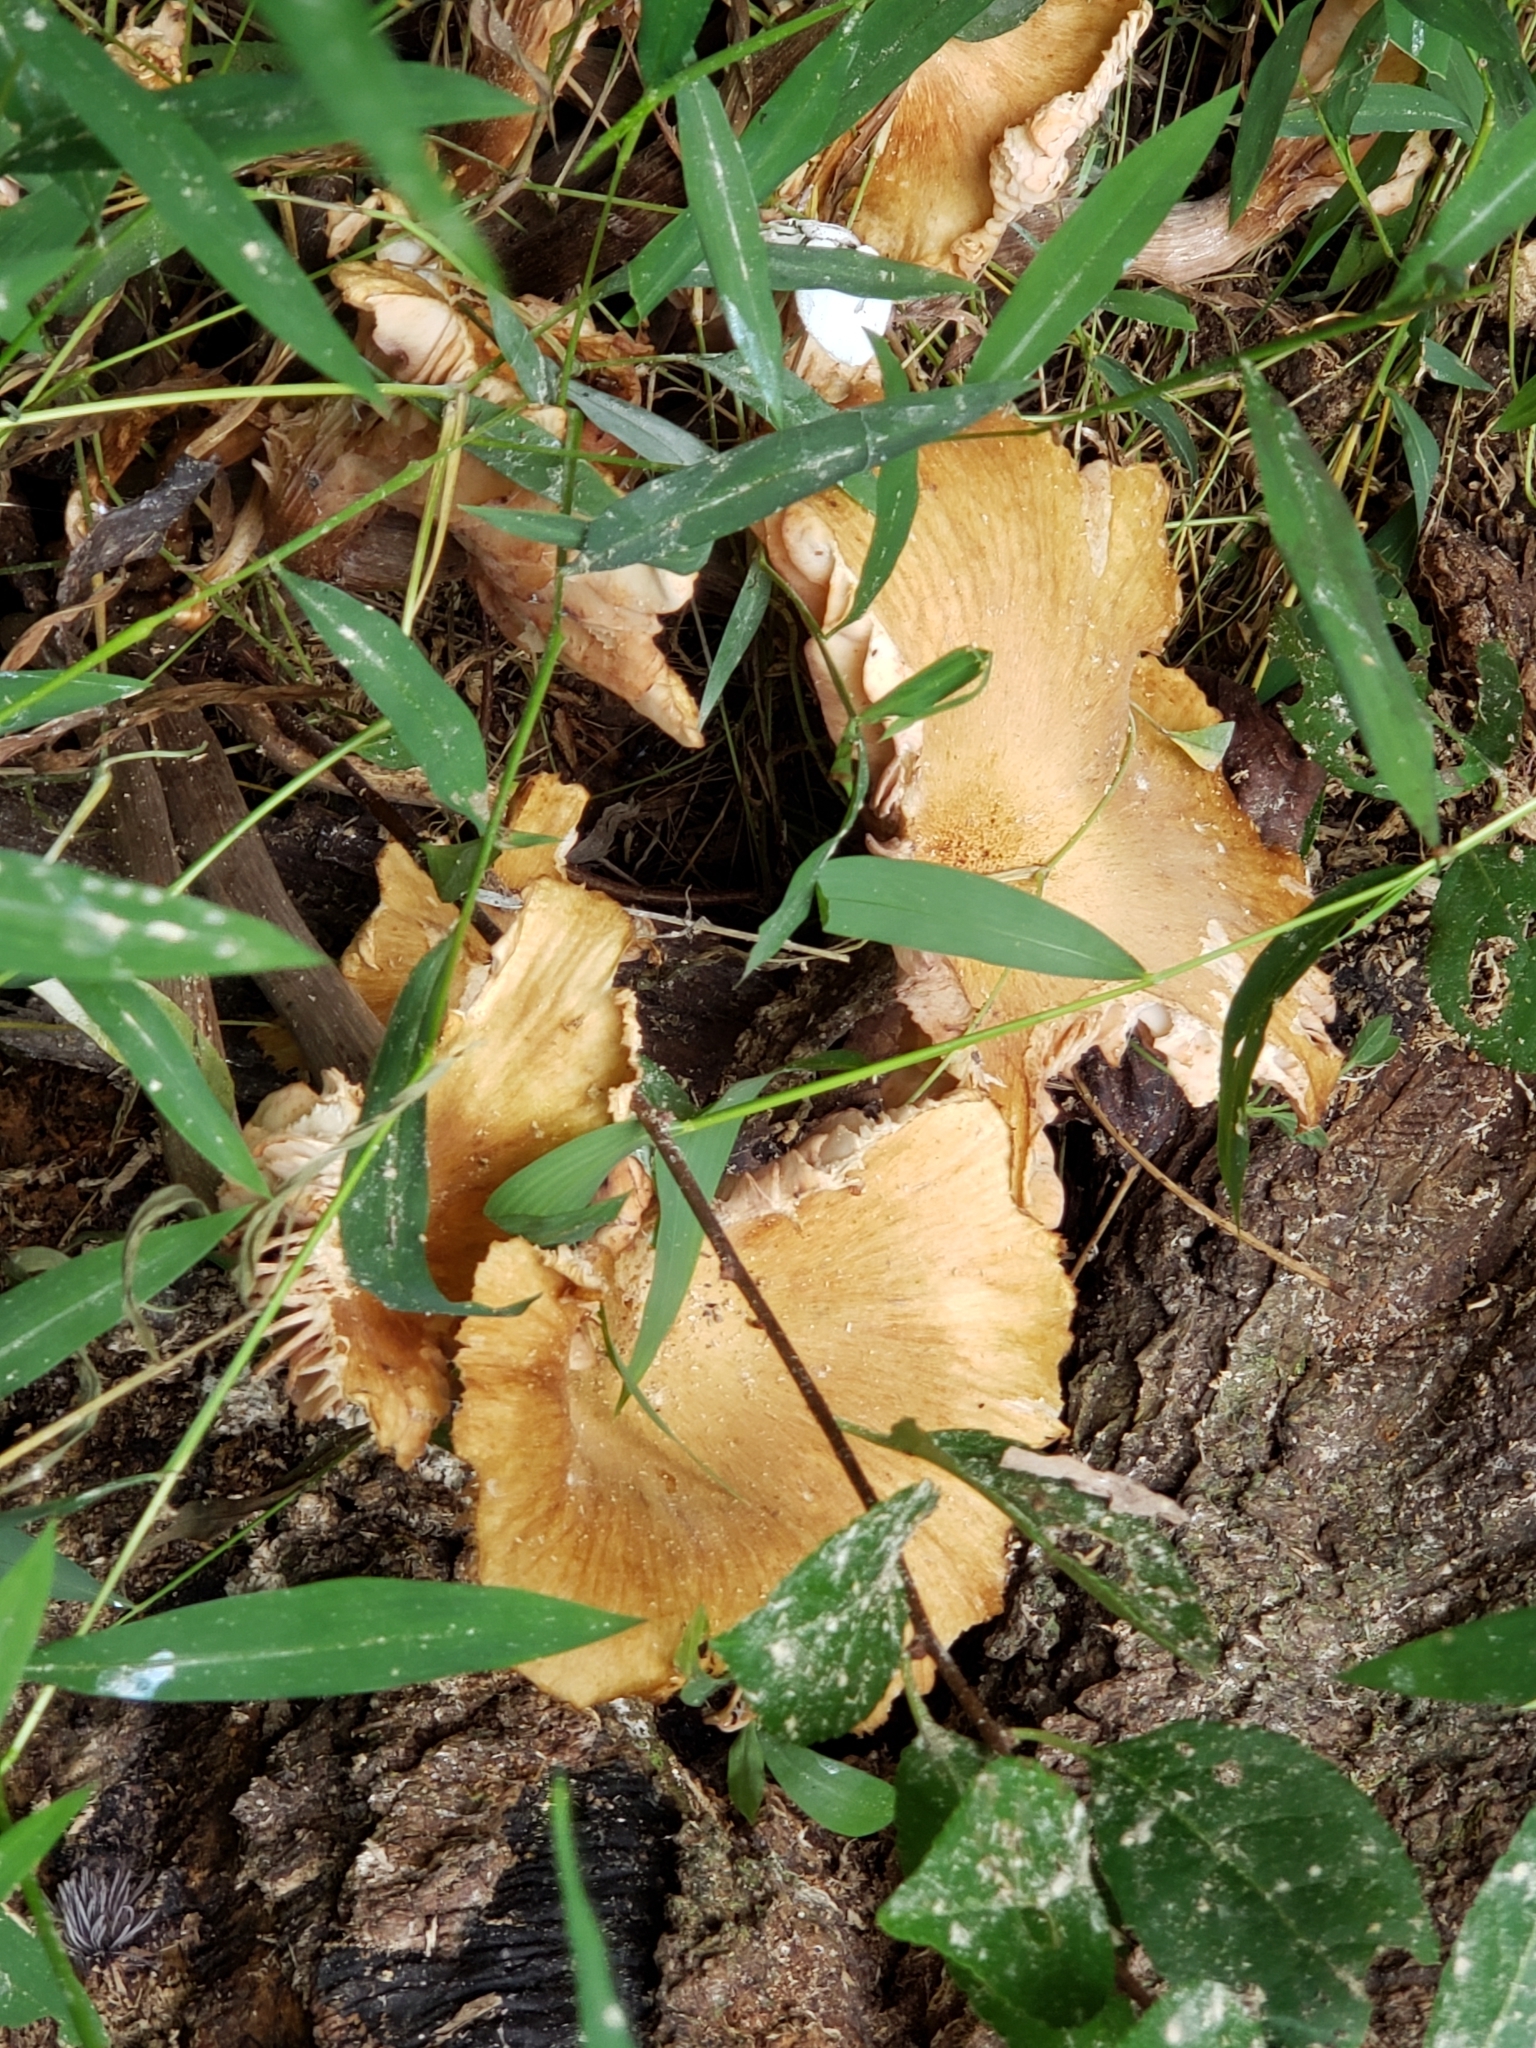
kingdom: Fungi
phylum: Basidiomycota
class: Agaricomycetes
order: Agaricales
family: Physalacriaceae
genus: Desarmillaria
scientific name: Desarmillaria caespitosa
